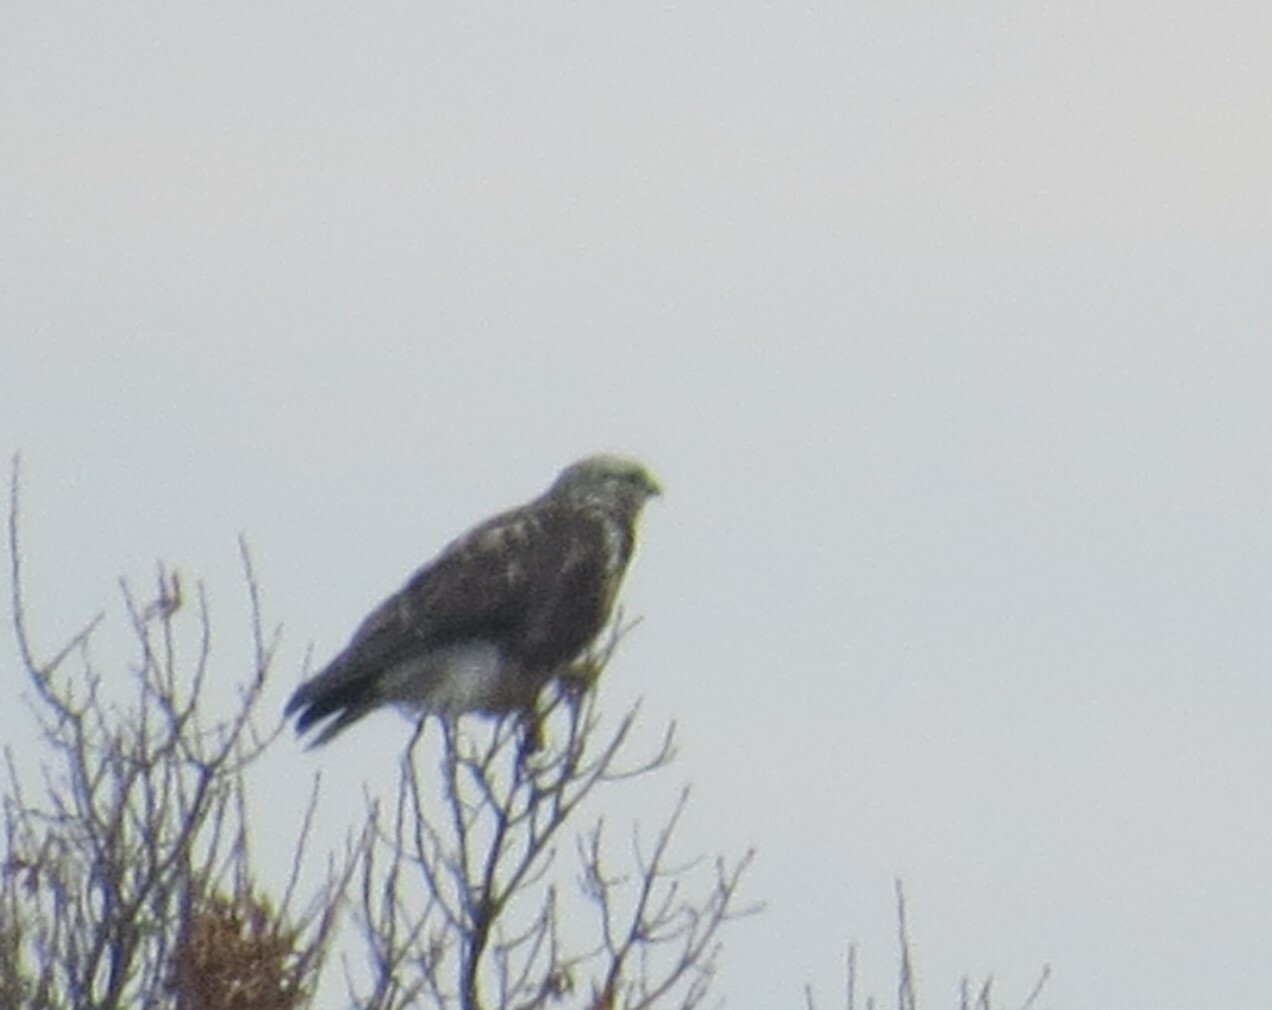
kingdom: Animalia
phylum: Chordata
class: Aves
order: Accipitriformes
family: Accipitridae
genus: Buteo
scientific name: Buteo lagopus
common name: Rough-legged buzzard
